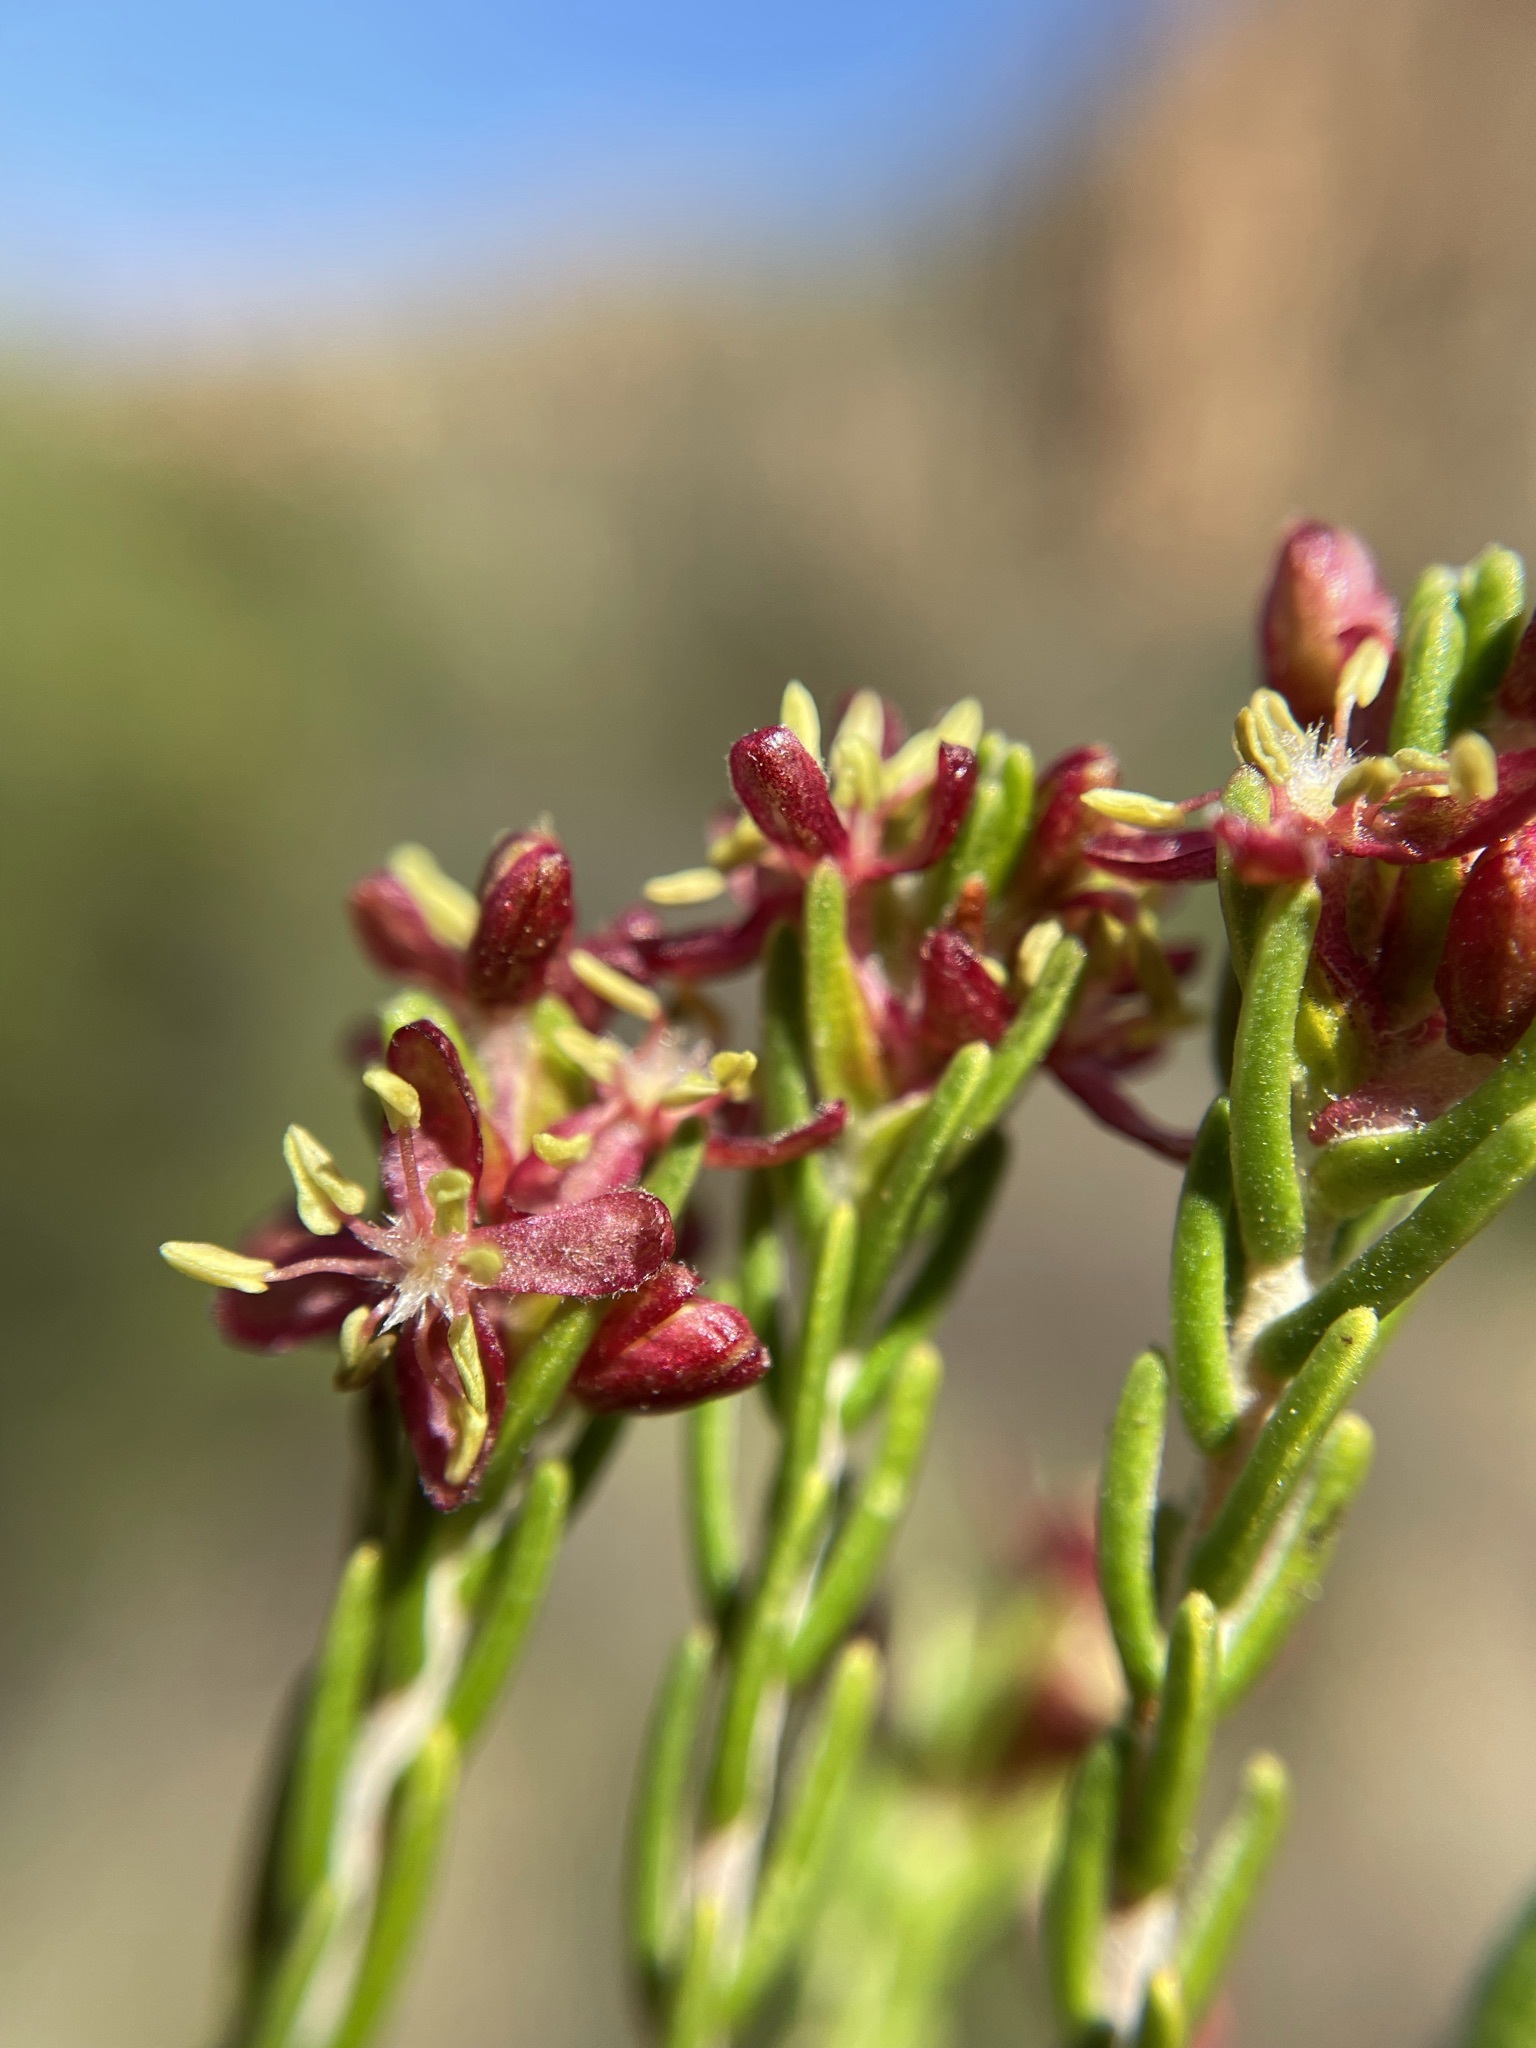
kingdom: Plantae
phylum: Tracheophyta
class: Magnoliopsida
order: Malvales
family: Thymelaeaceae
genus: Passerina
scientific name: Passerina obtusifolia
